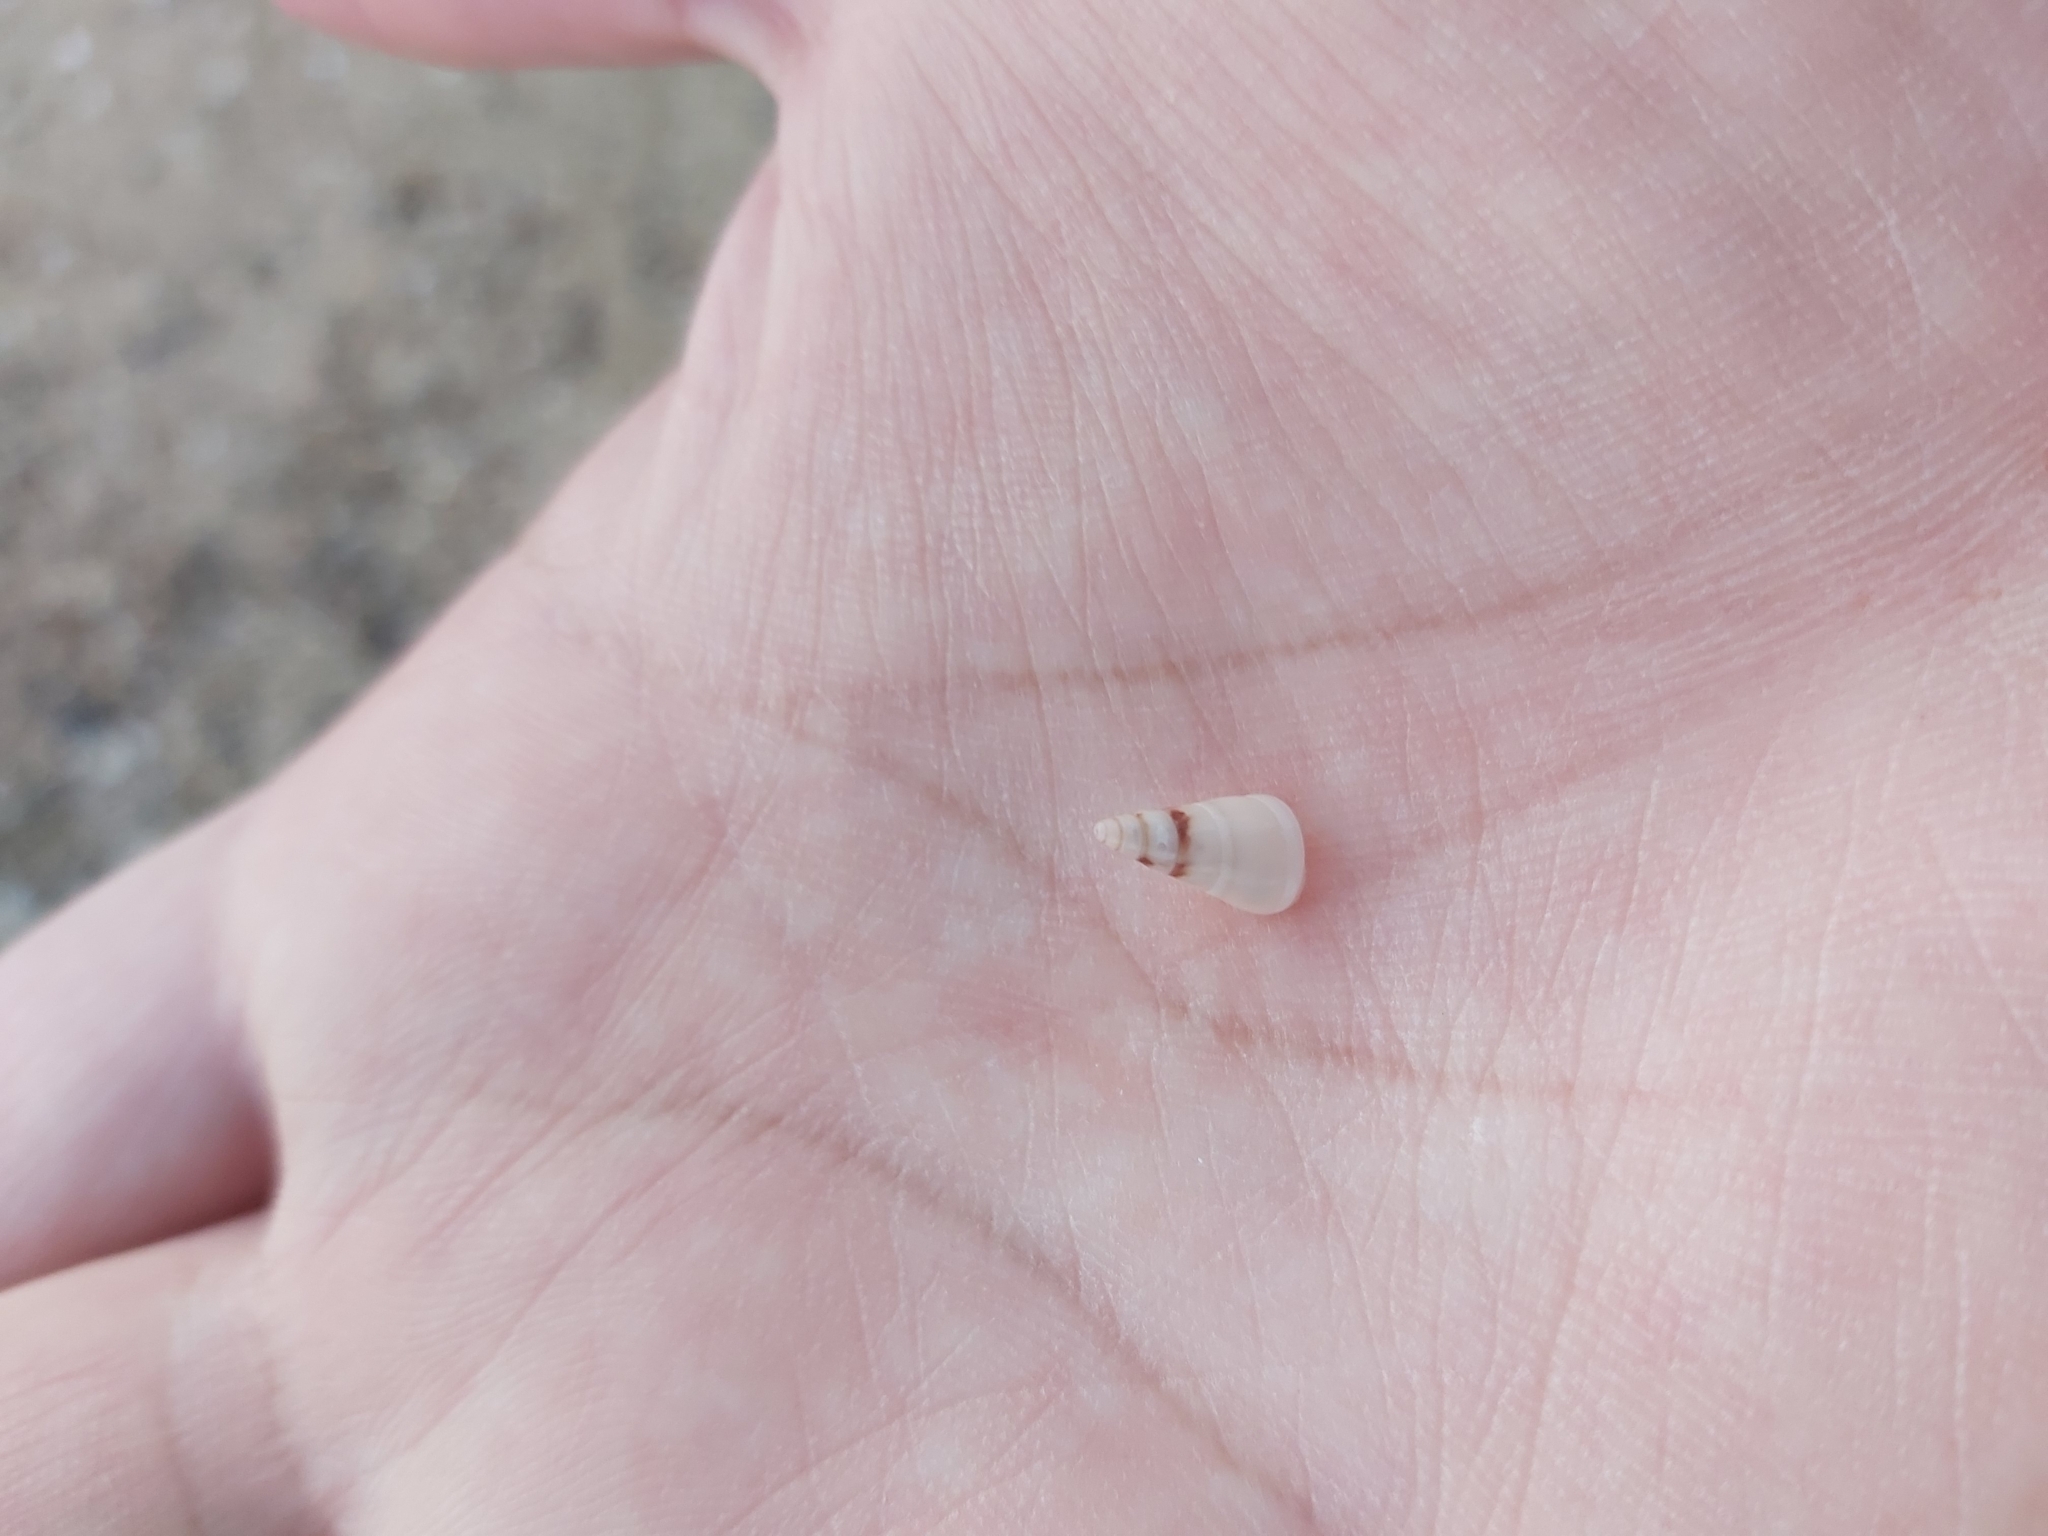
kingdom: Animalia
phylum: Mollusca
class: Gastropoda
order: Trochida
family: Trochidae
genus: Bankivia
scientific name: Bankivia fasciata
